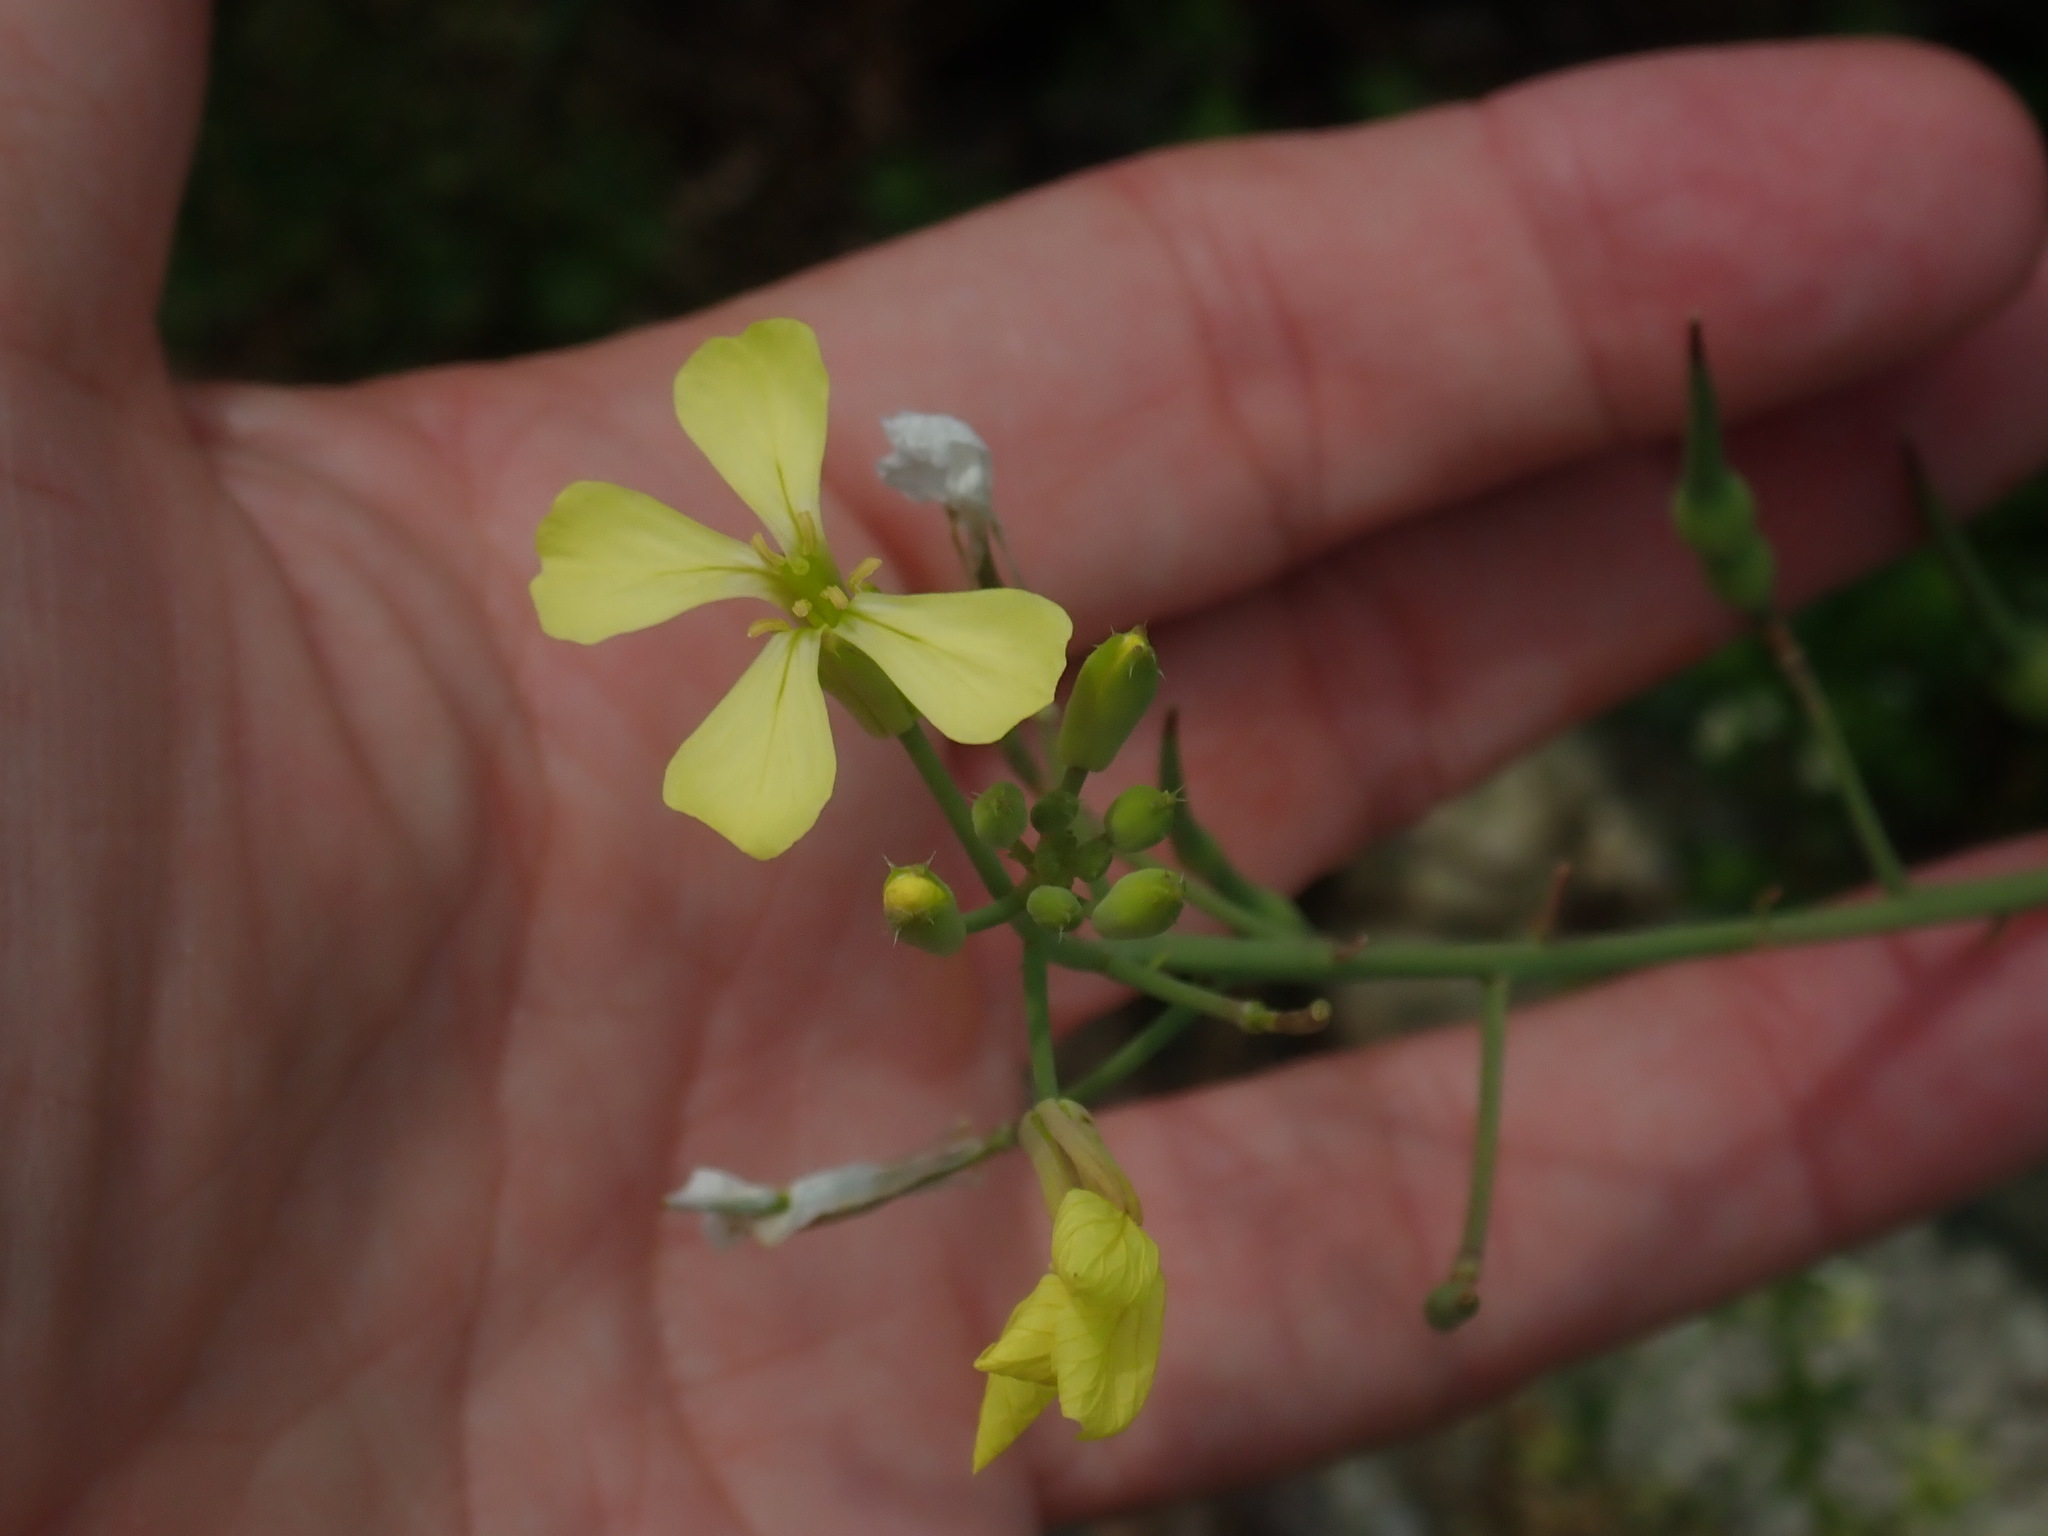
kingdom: Plantae
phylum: Tracheophyta
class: Magnoliopsida
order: Brassicales
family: Brassicaceae
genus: Raphanus
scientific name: Raphanus raphanistrum
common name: Wild radish
